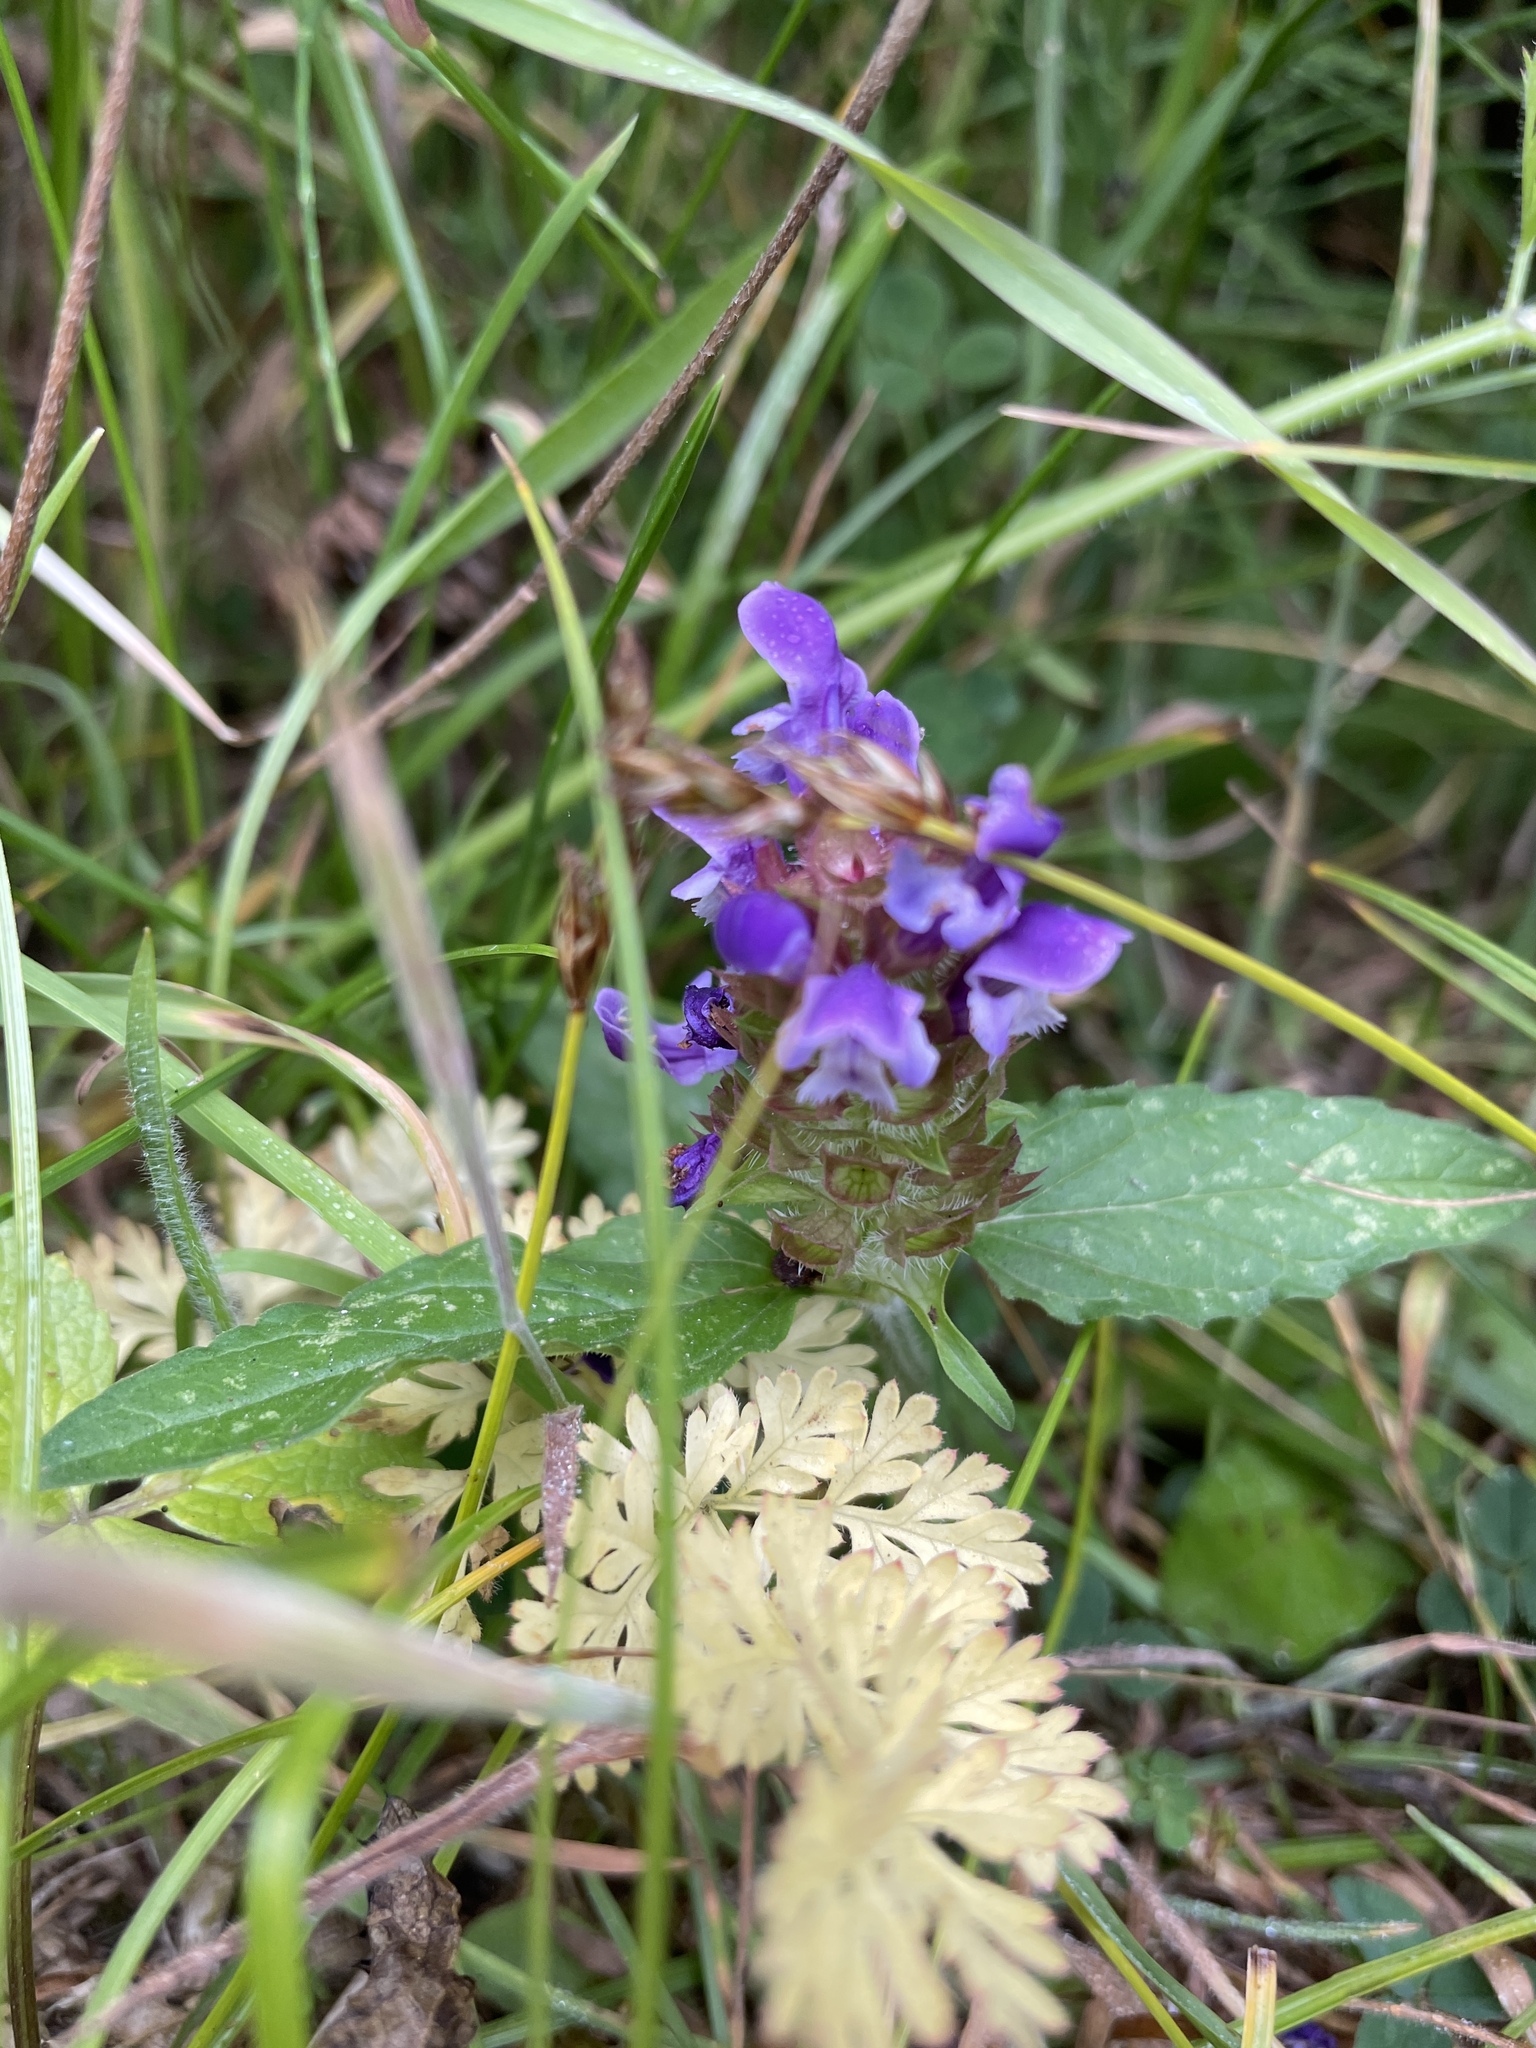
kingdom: Plantae
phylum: Tracheophyta
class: Magnoliopsida
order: Lamiales
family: Lamiaceae
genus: Prunella
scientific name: Prunella vulgaris
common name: Heal-all
